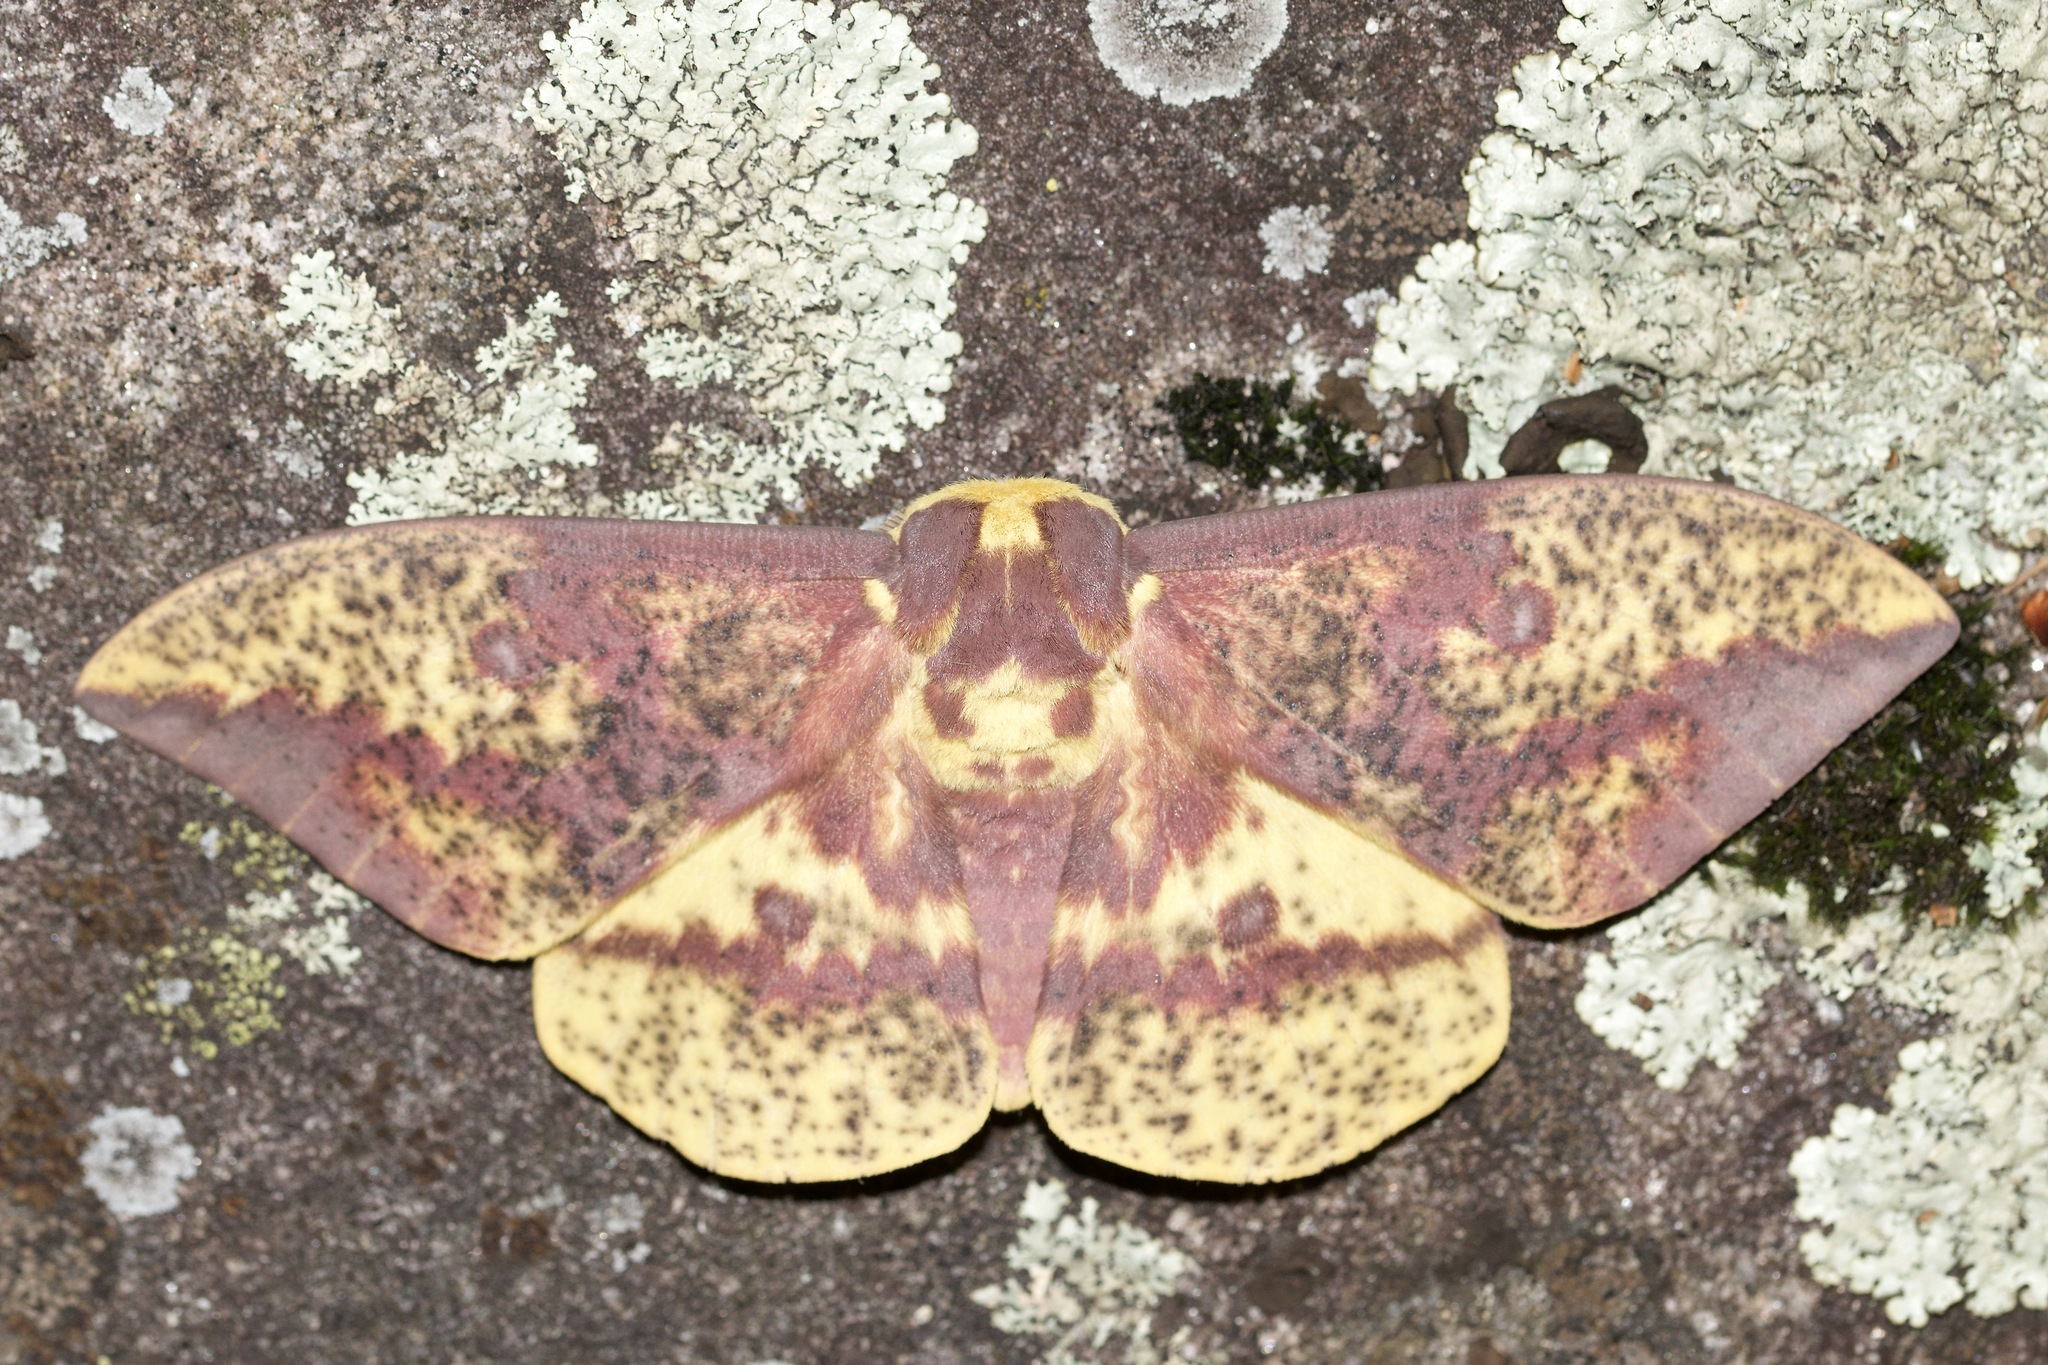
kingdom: Animalia
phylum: Arthropoda
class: Insecta
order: Lepidoptera
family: Saturniidae
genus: Eacles
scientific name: Eacles
